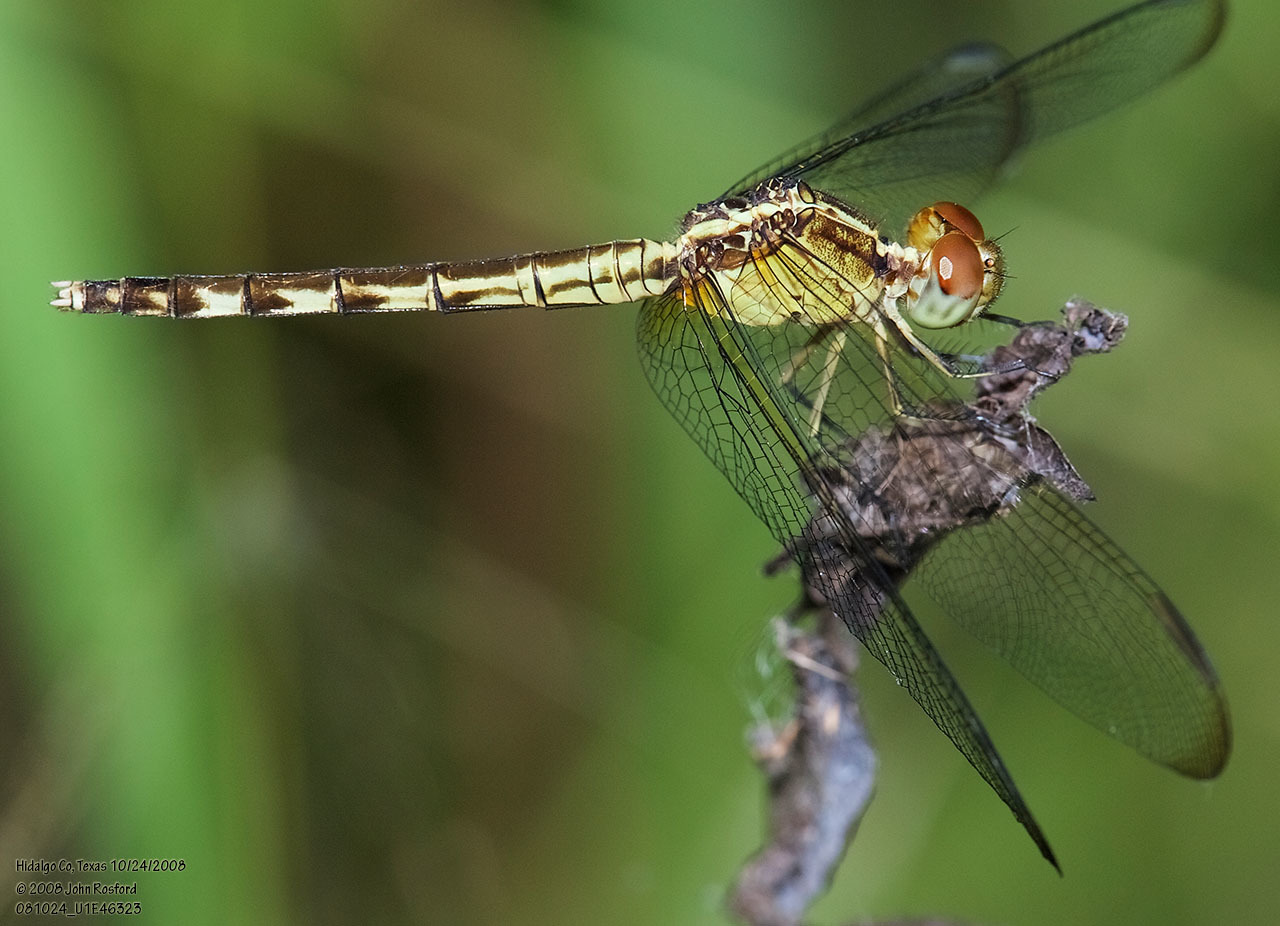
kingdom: Animalia
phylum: Arthropoda
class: Insecta
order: Odonata
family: Libellulidae
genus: Erythrodiplax
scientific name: Erythrodiplax umbrata
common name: Band-winged dragonlet
